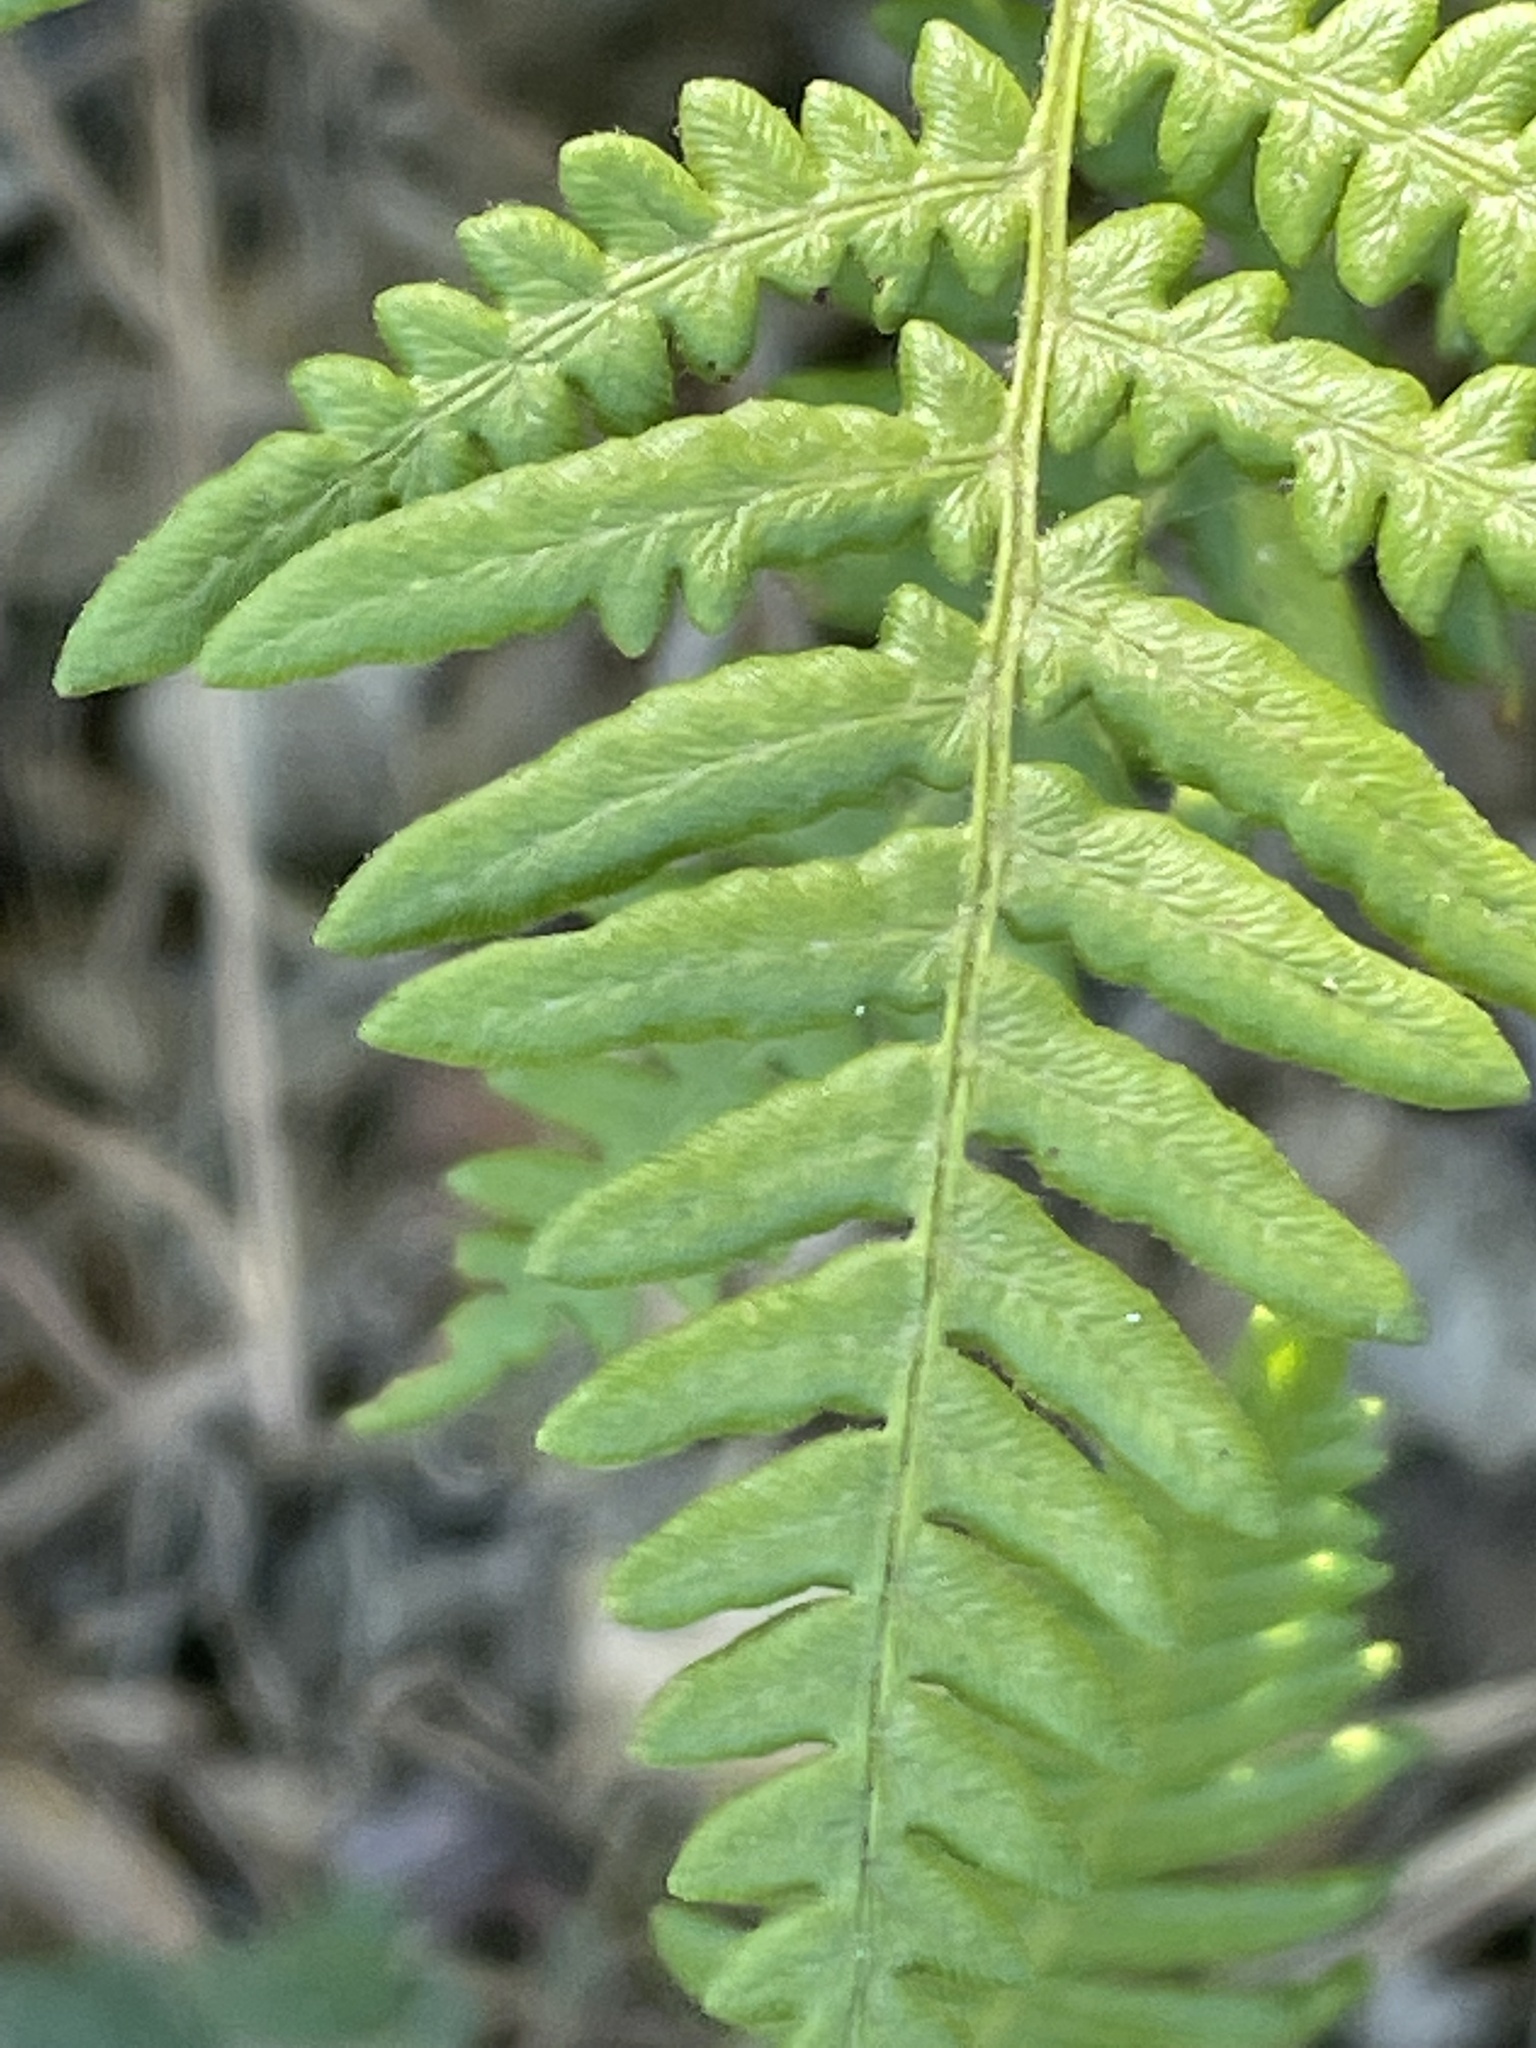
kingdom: Plantae
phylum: Tracheophyta
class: Polypodiopsida
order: Polypodiales
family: Dennstaedtiaceae
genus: Pteridium
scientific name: Pteridium aquilinum
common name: Bracken
